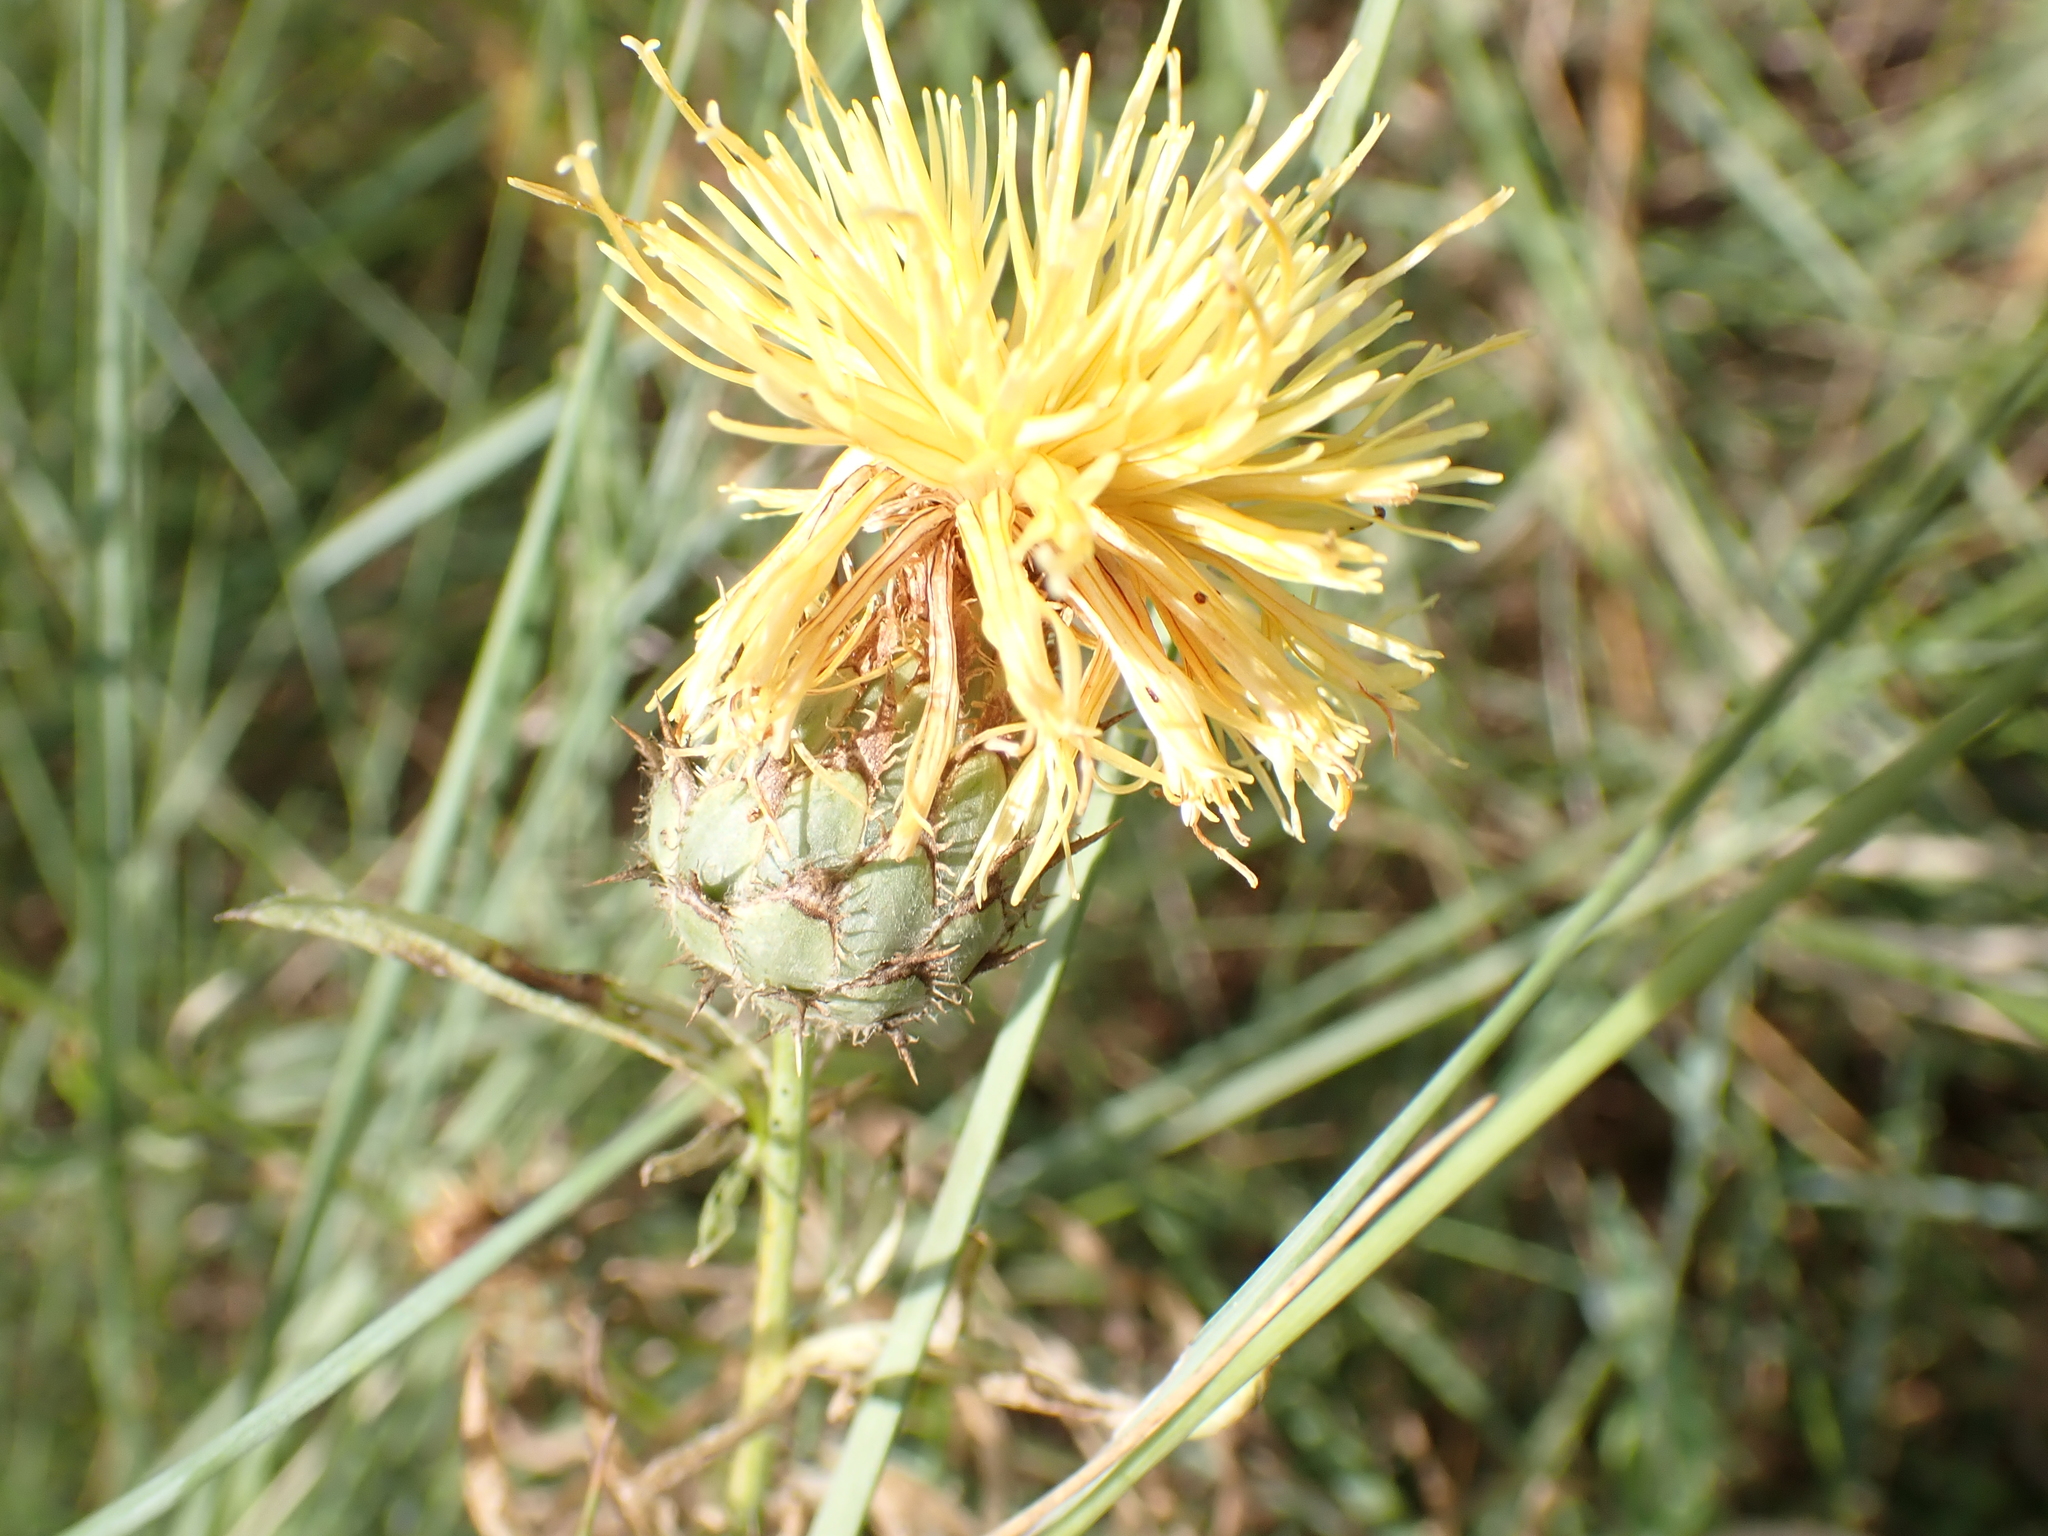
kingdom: Plantae
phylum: Tracheophyta
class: Magnoliopsida
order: Asterales
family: Asteraceae
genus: Centaurea
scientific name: Centaurea collina
